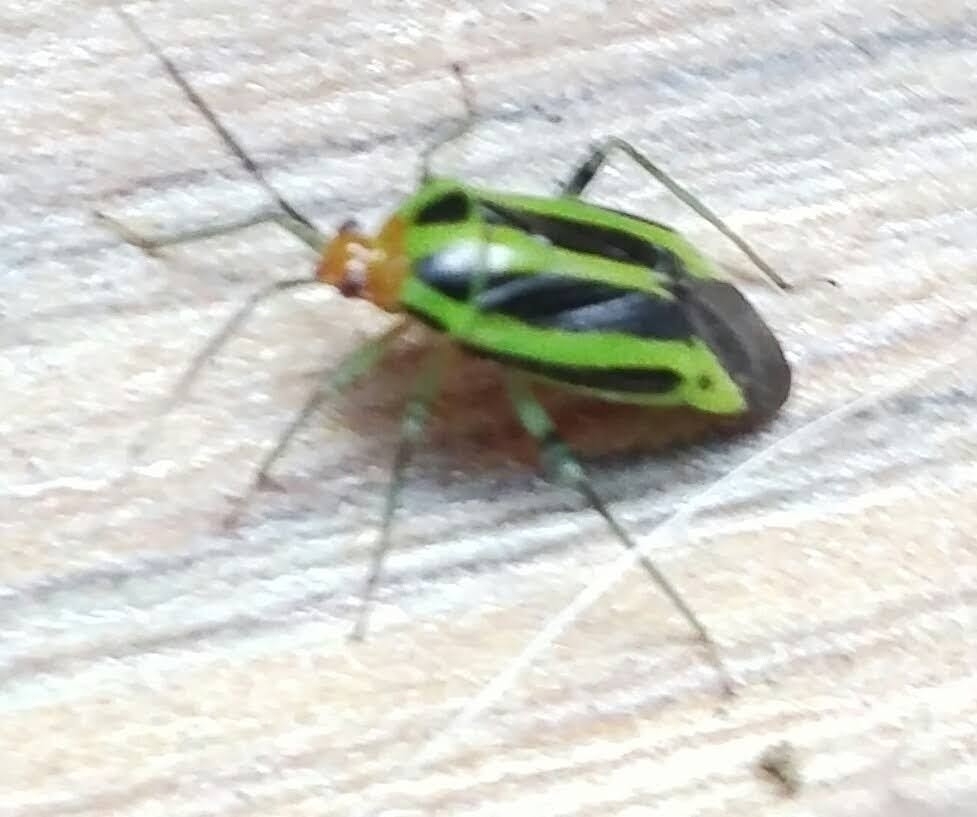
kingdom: Animalia
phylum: Arthropoda
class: Insecta
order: Hemiptera
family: Miridae
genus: Poecilocapsus
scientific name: Poecilocapsus lineatus
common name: Four-lined plant bug
